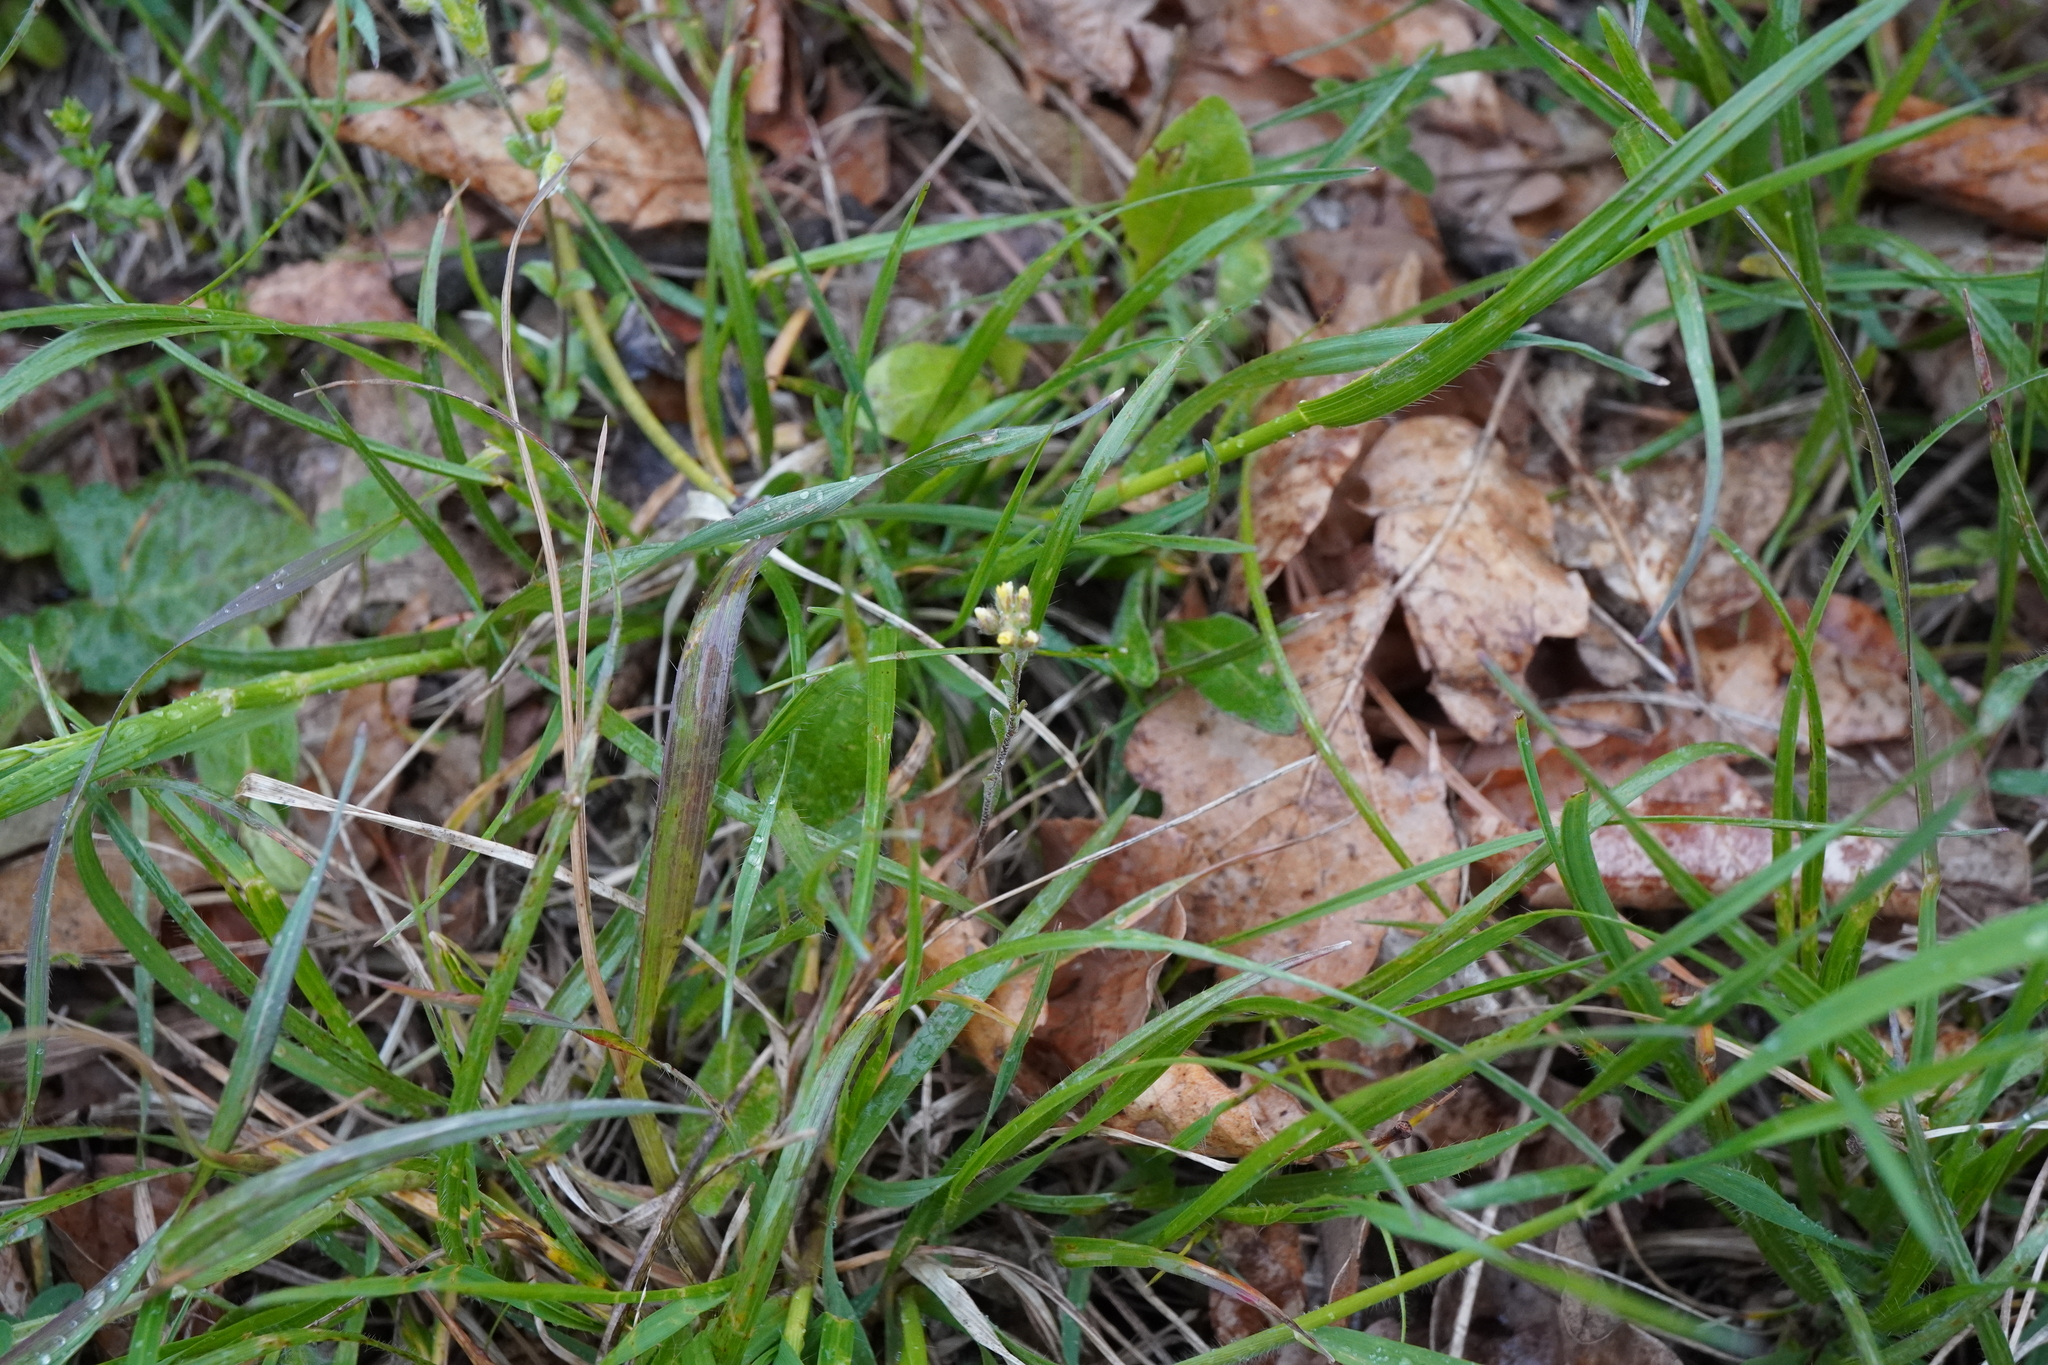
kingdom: Plantae
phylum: Tracheophyta
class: Magnoliopsida
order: Brassicales
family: Brassicaceae
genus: Alyssum
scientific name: Alyssum alyssoides
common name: Small alison
